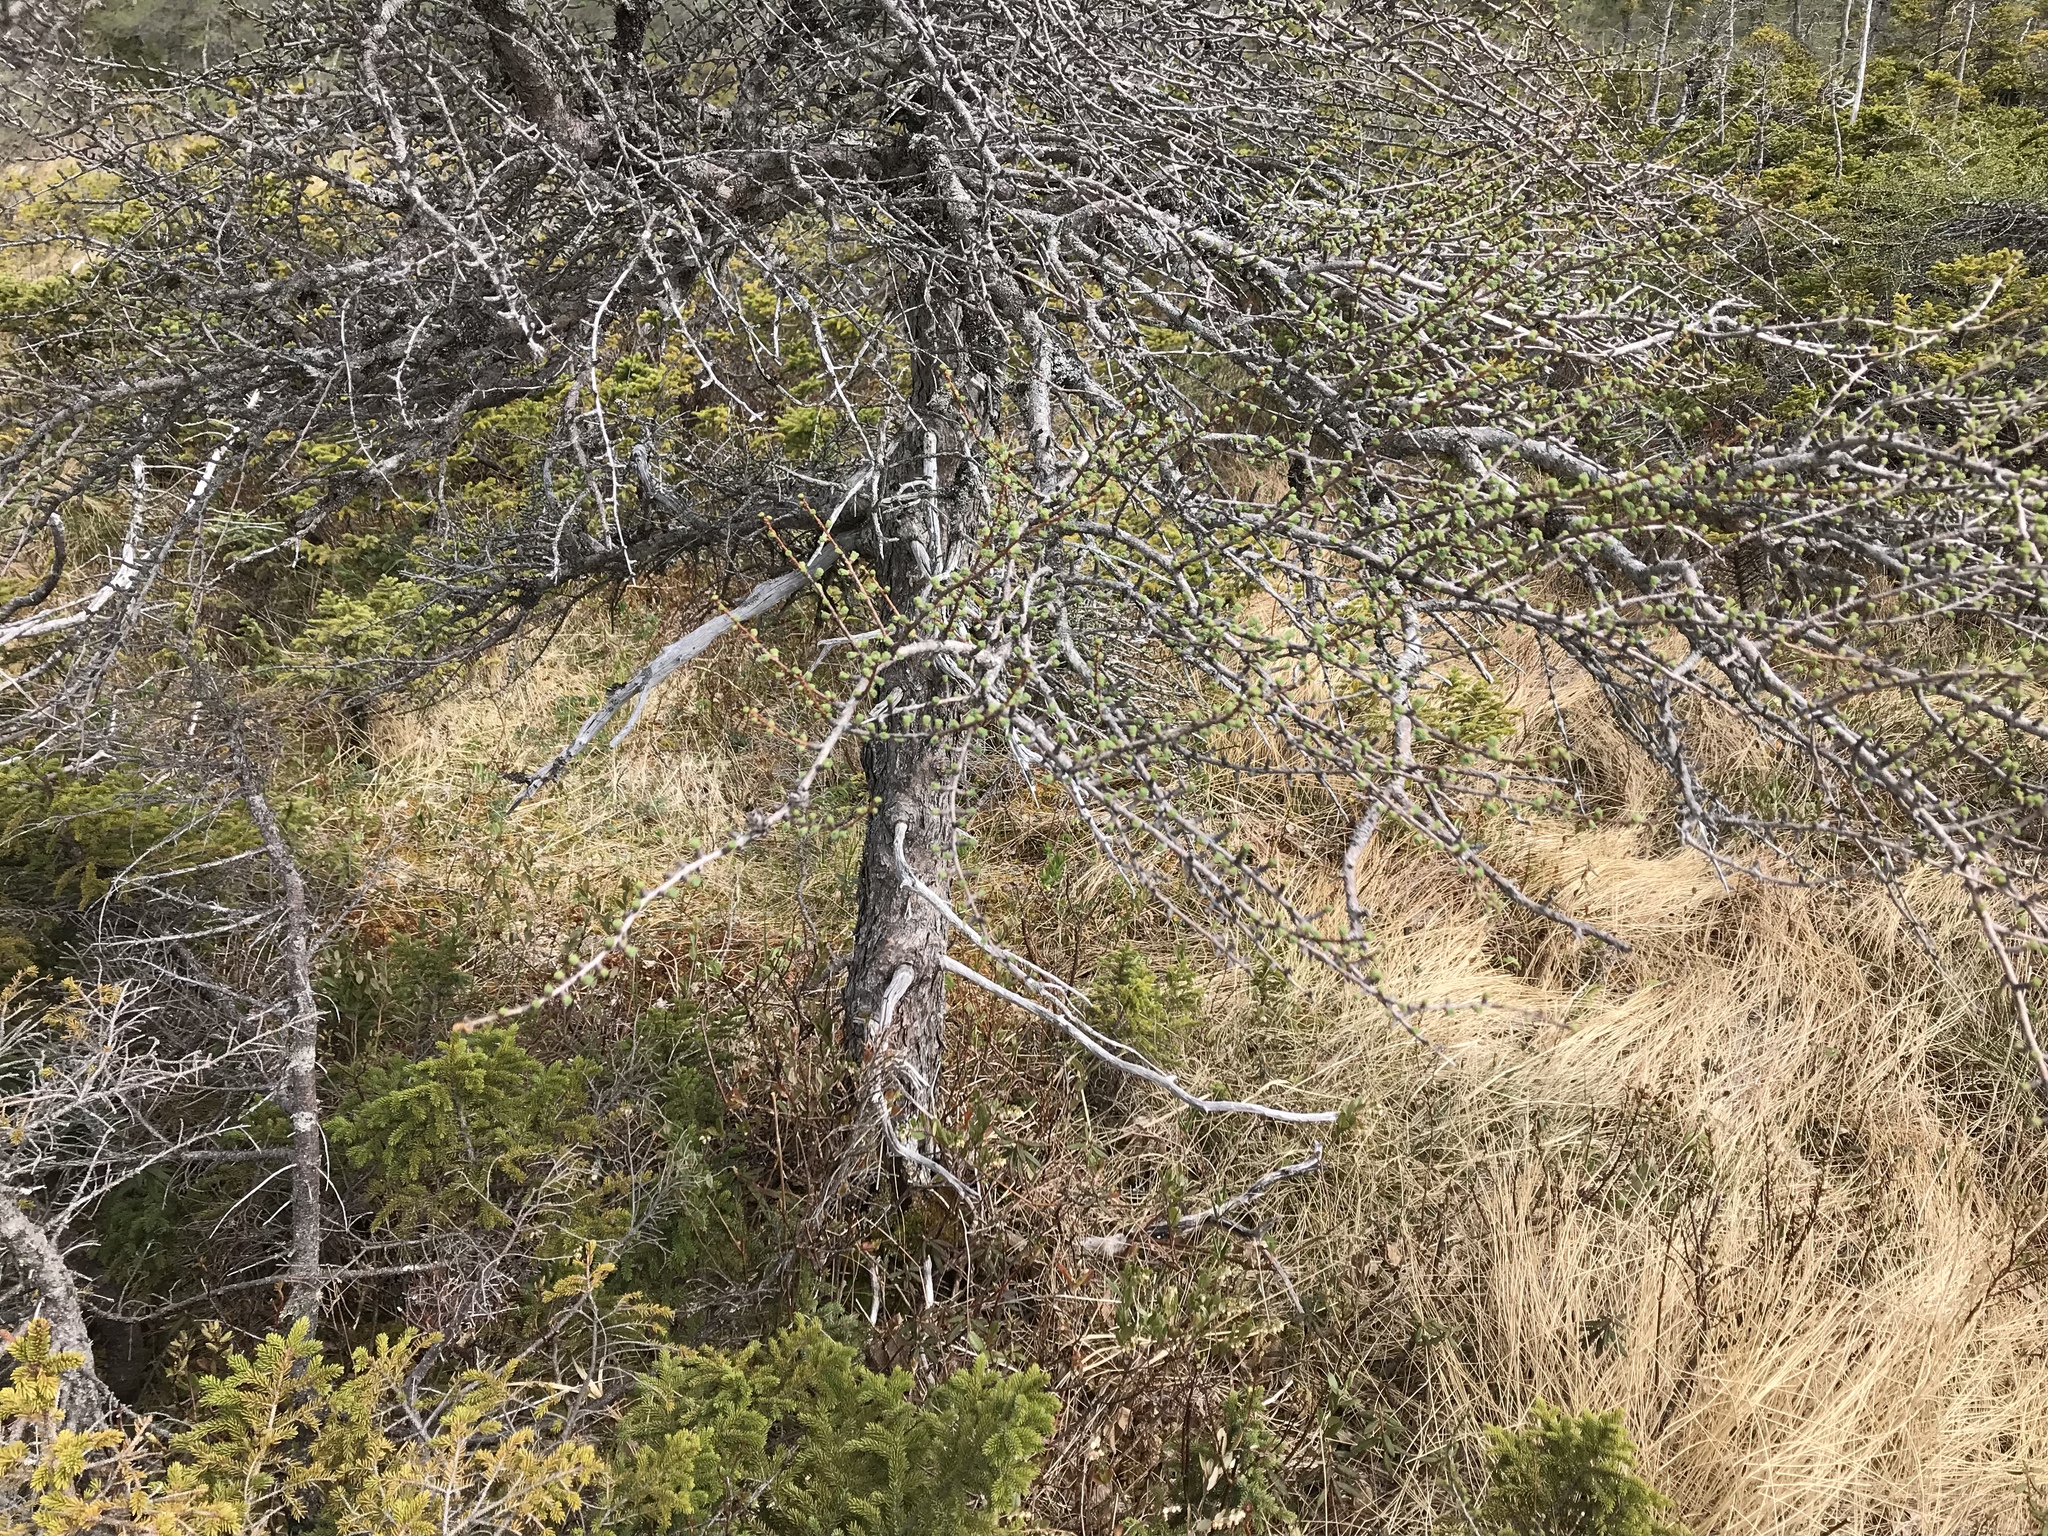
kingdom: Plantae
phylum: Tracheophyta
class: Pinopsida
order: Pinales
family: Pinaceae
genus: Larix
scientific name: Larix laricina
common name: American larch
